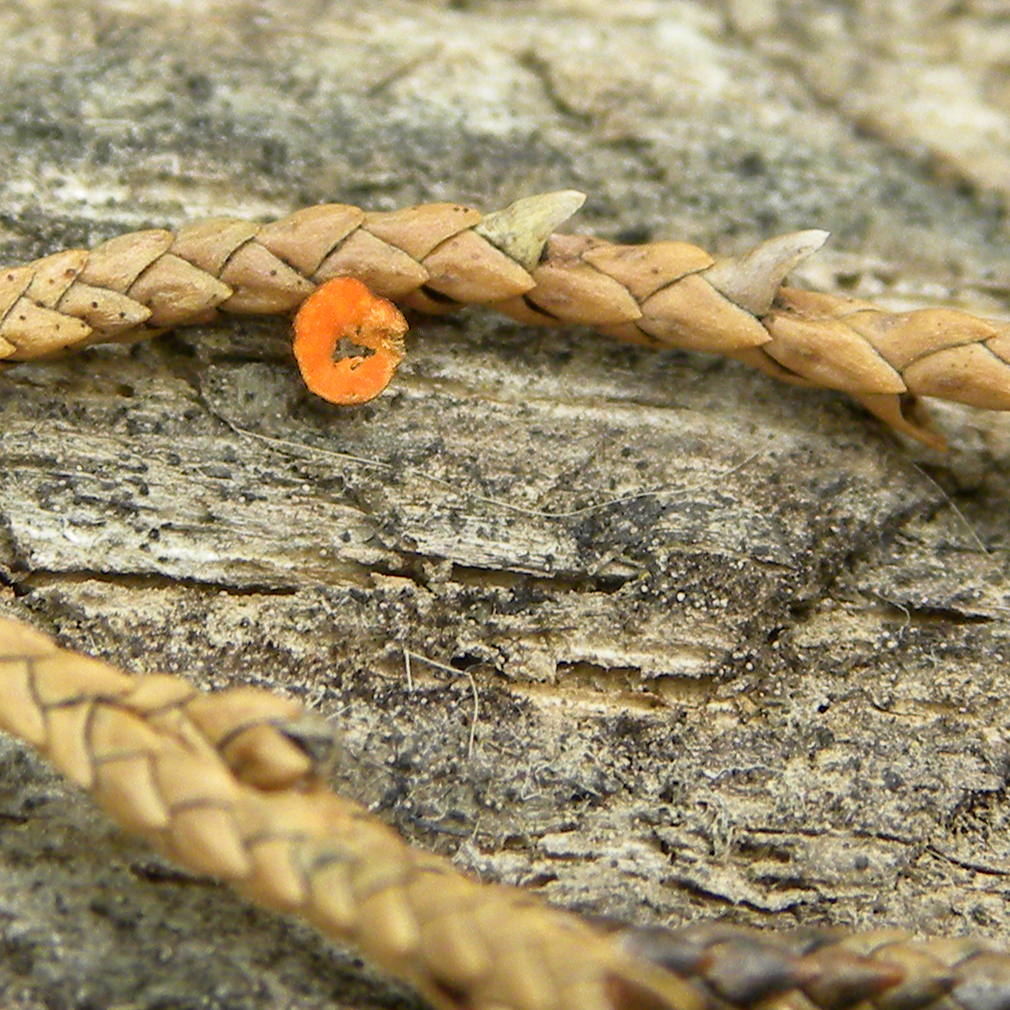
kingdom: Fungi
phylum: Ascomycota
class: Pezizomycetes
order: Pezizales
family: Sarcoscyphaceae
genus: Pithya
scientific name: Pithya cupressina
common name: Juniper disco
